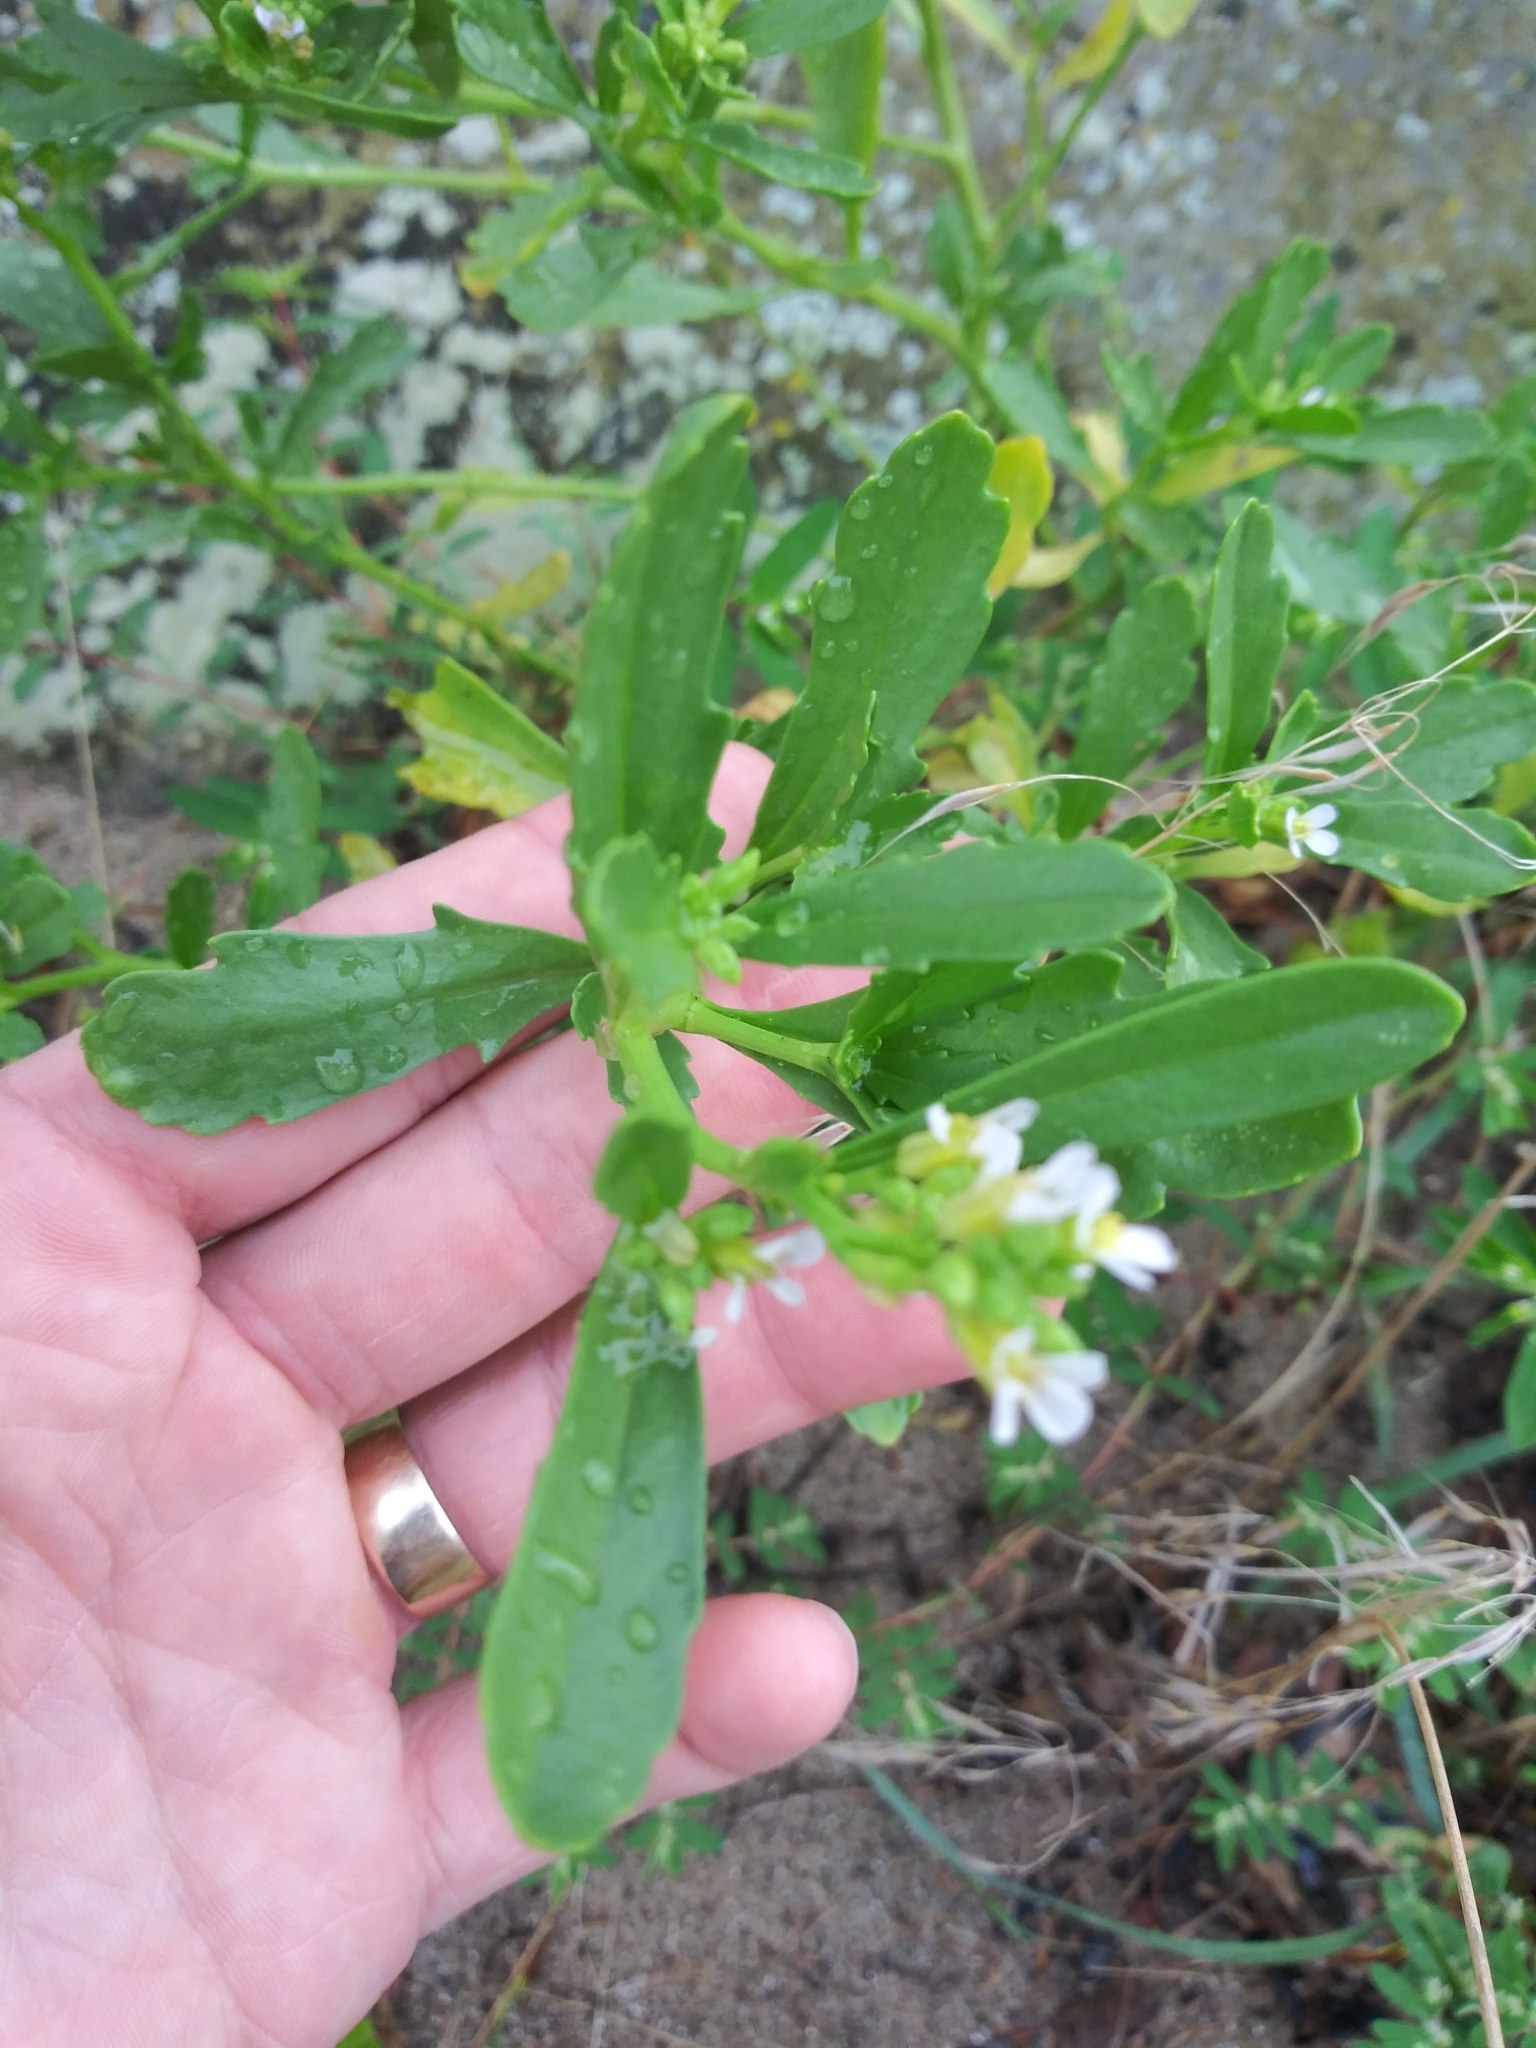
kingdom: Plantae
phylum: Tracheophyta
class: Magnoliopsida
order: Brassicales
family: Brassicaceae
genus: Cakile
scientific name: Cakile edentula
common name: American sea rocket
